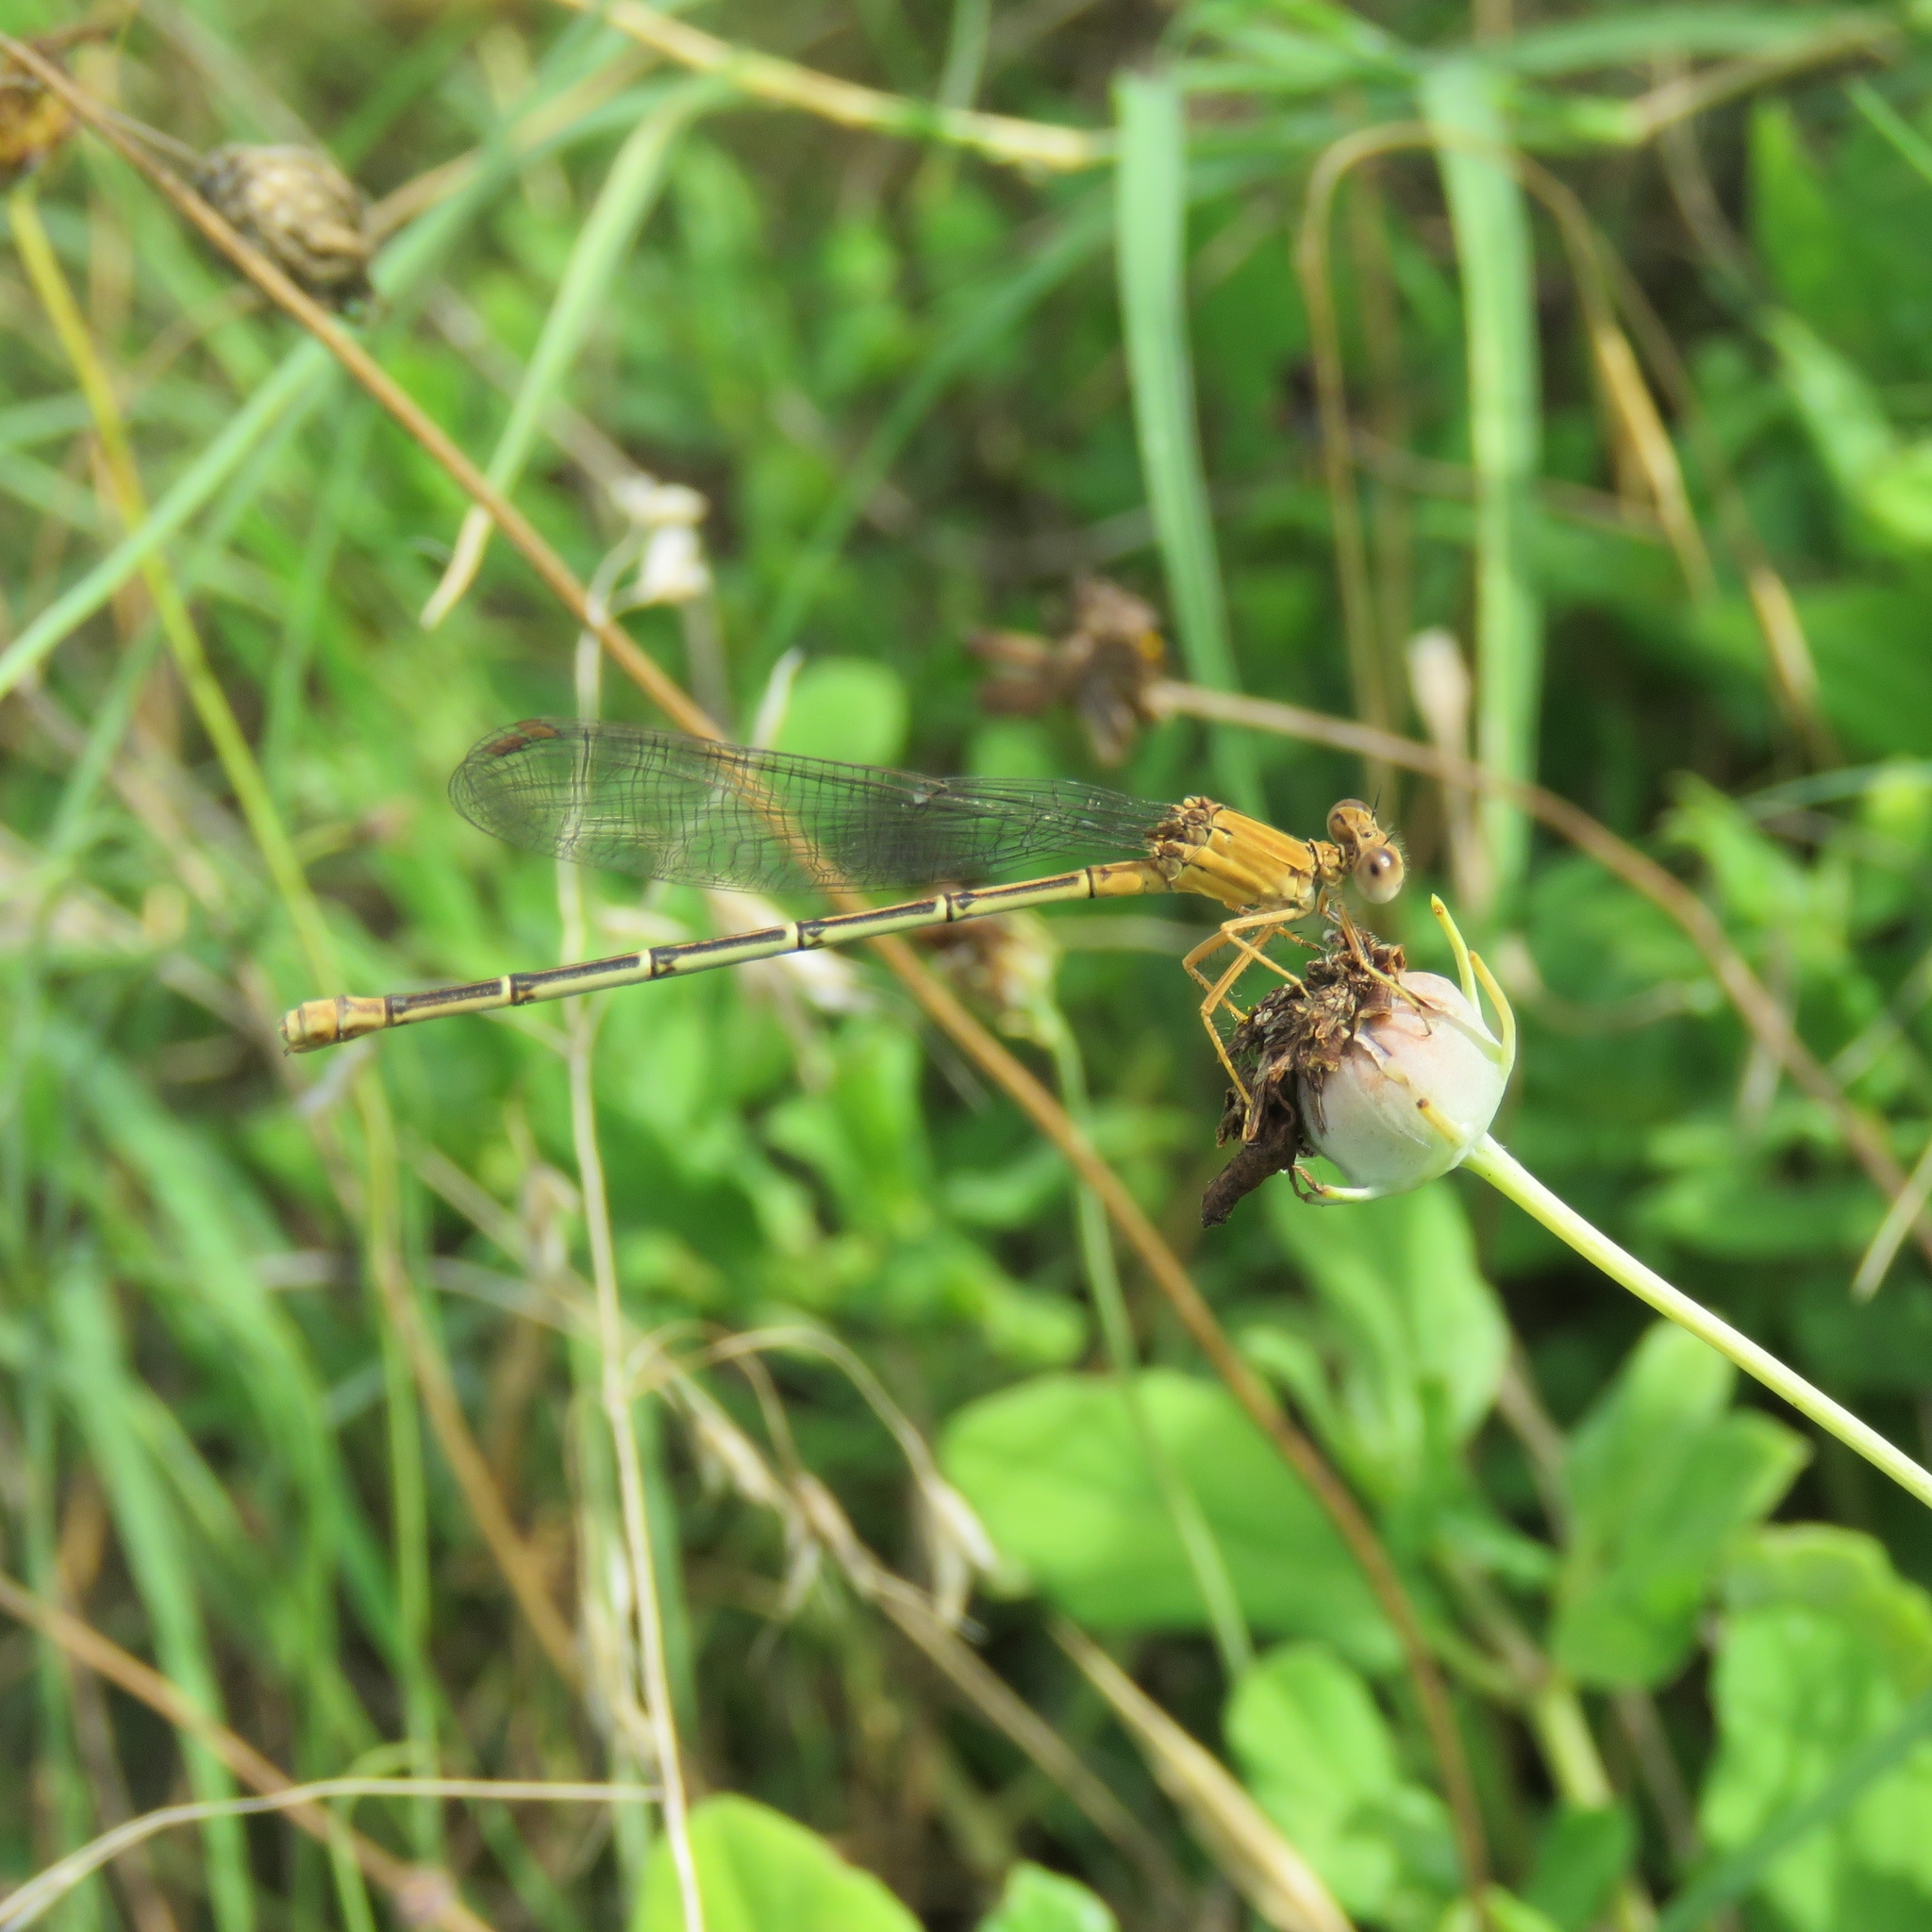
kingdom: Animalia
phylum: Arthropoda
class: Insecta
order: Odonata
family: Coenagrionidae
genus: Argia
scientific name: Argia apicalis
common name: Blue-fronted dancer
